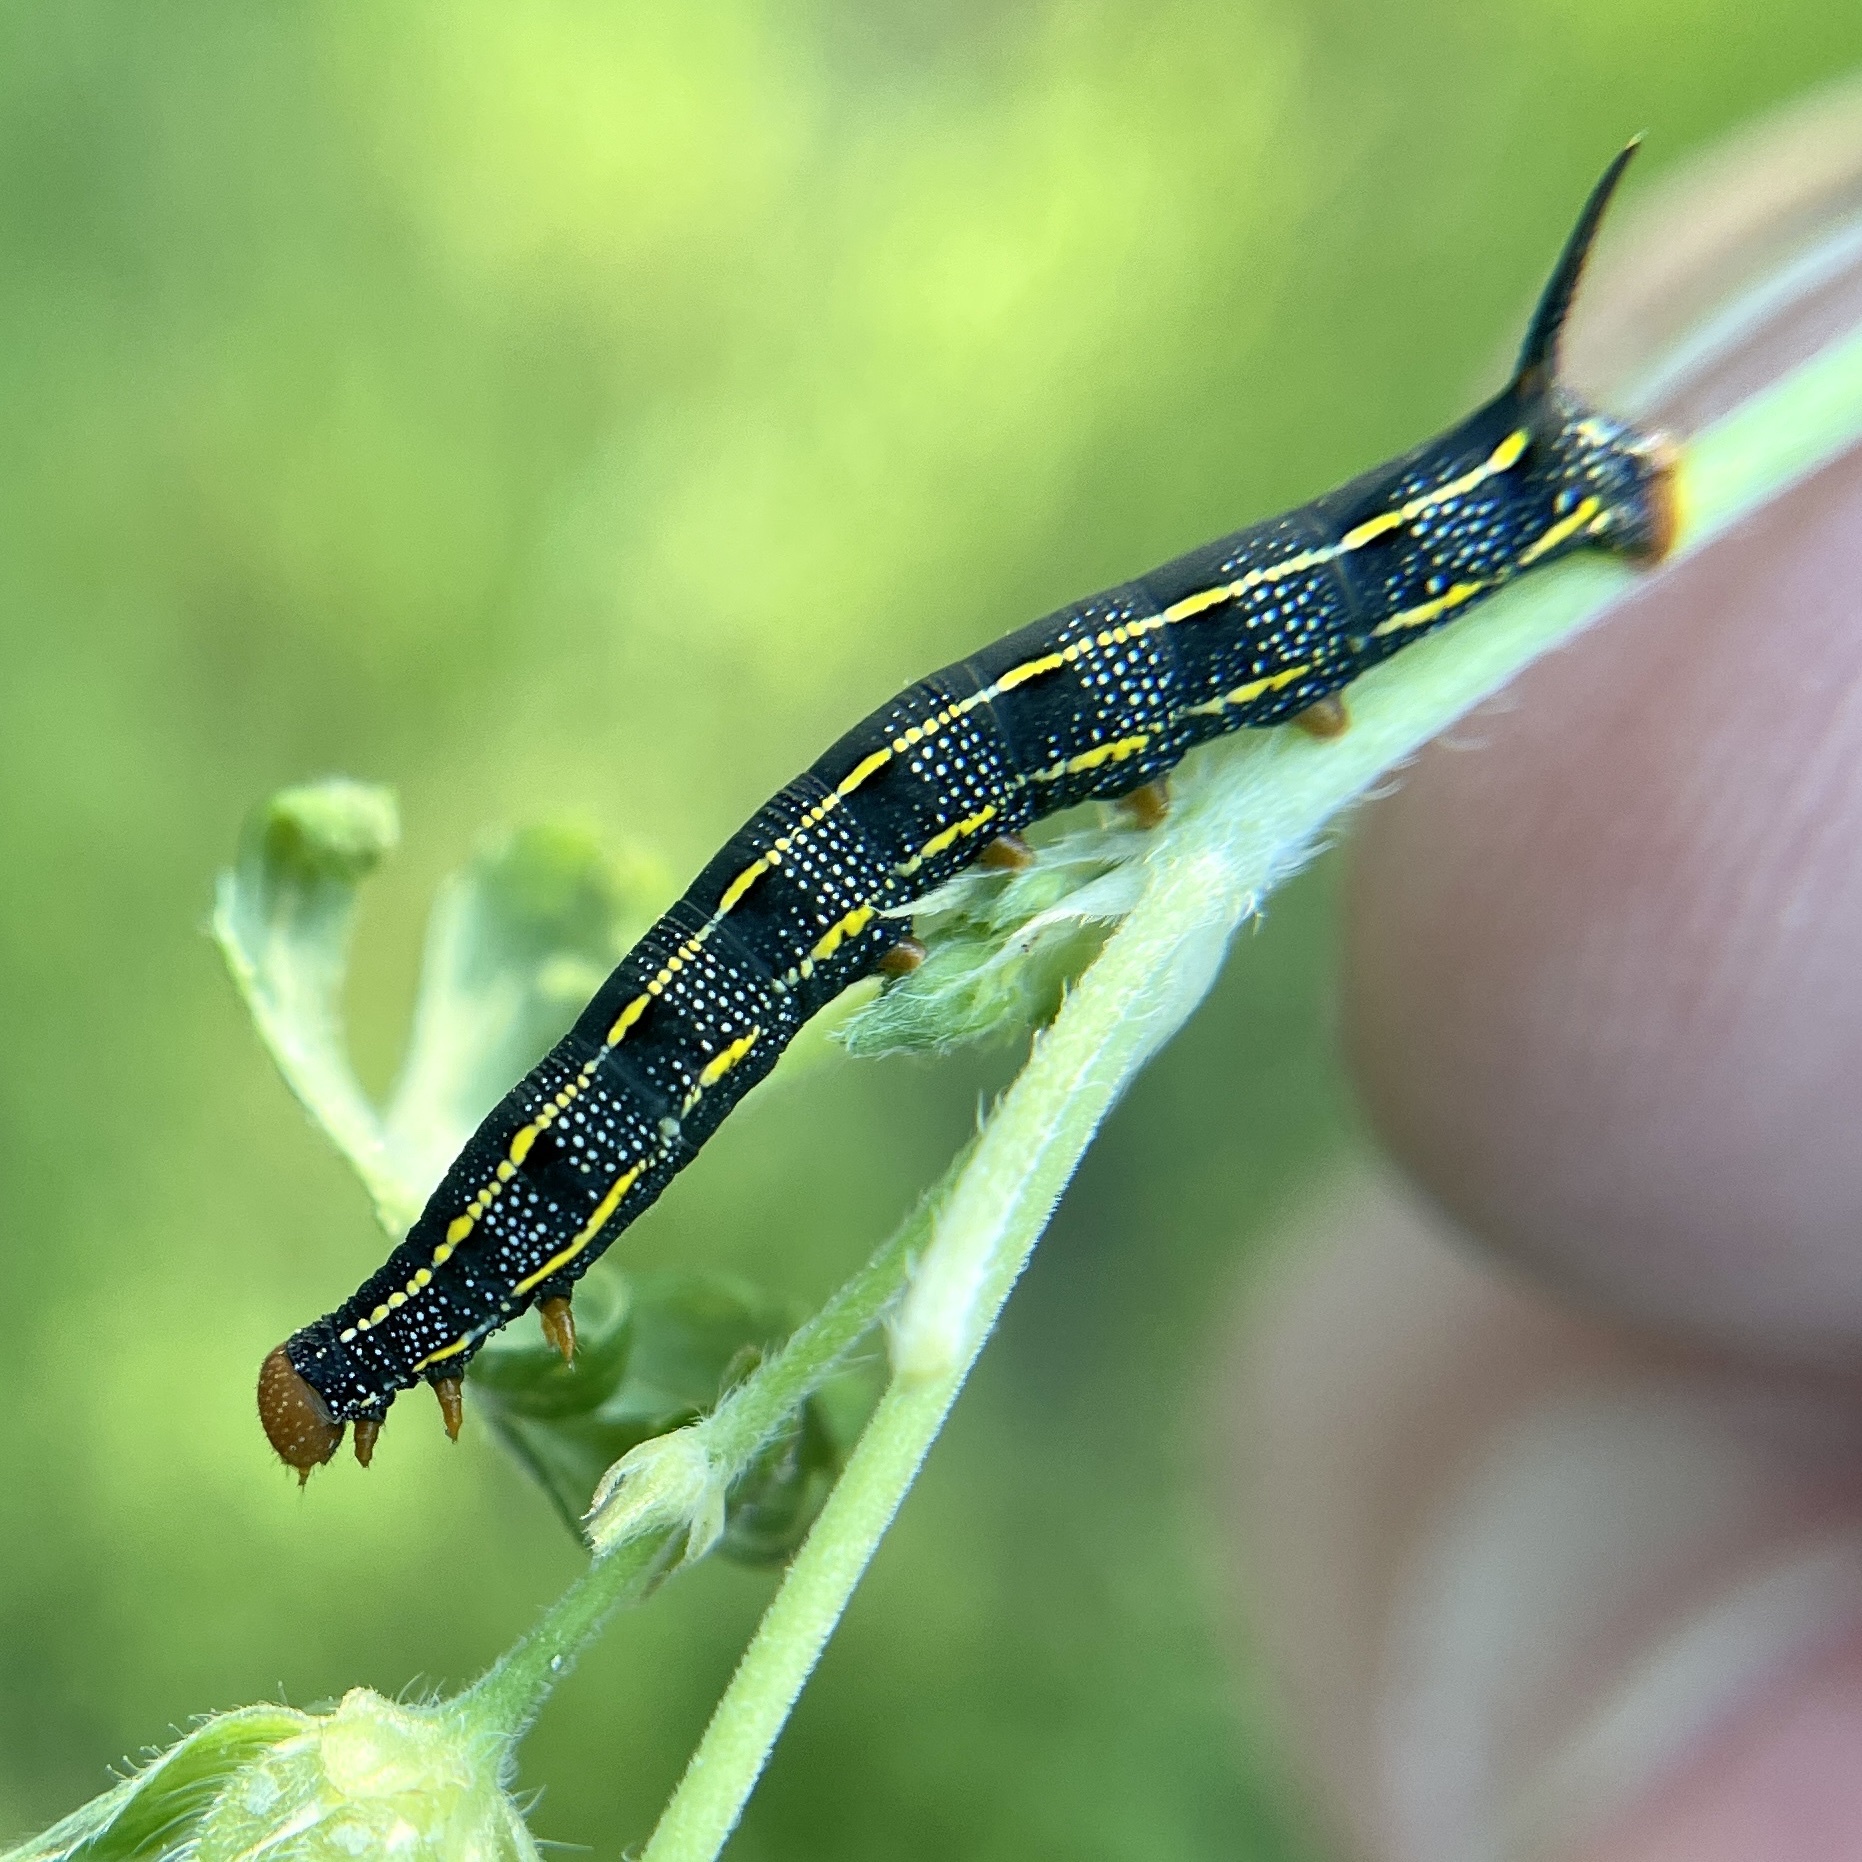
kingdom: Animalia
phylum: Arthropoda
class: Insecta
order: Lepidoptera
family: Sphingidae
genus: Hyles
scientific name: Hyles lineata
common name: White-lined sphinx
